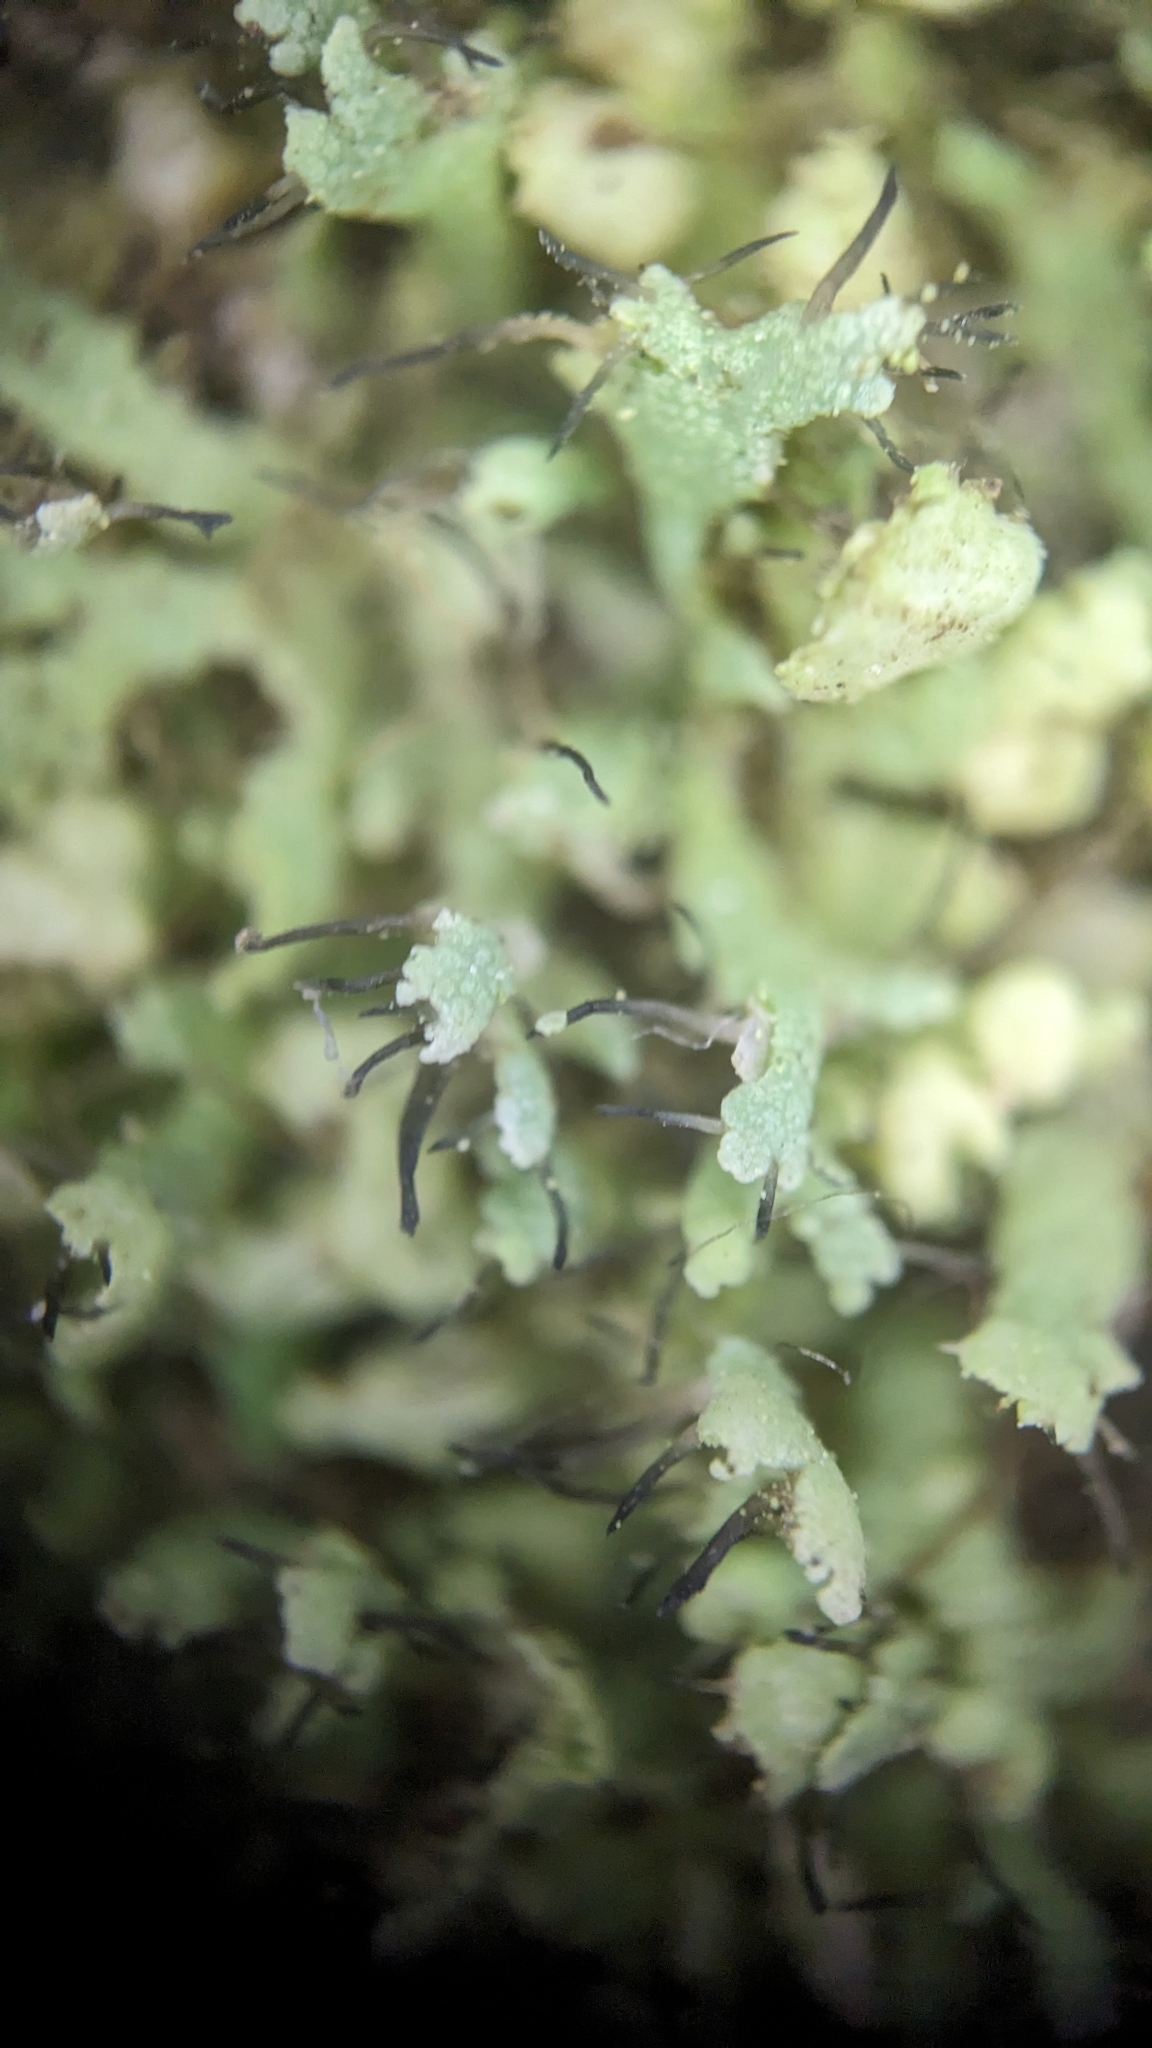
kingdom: Fungi
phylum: Ascomycota
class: Lecanoromycetes
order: Caliciales
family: Physciaceae
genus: Physcia
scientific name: Physcia adscendens
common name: Hooded rosette lichen
